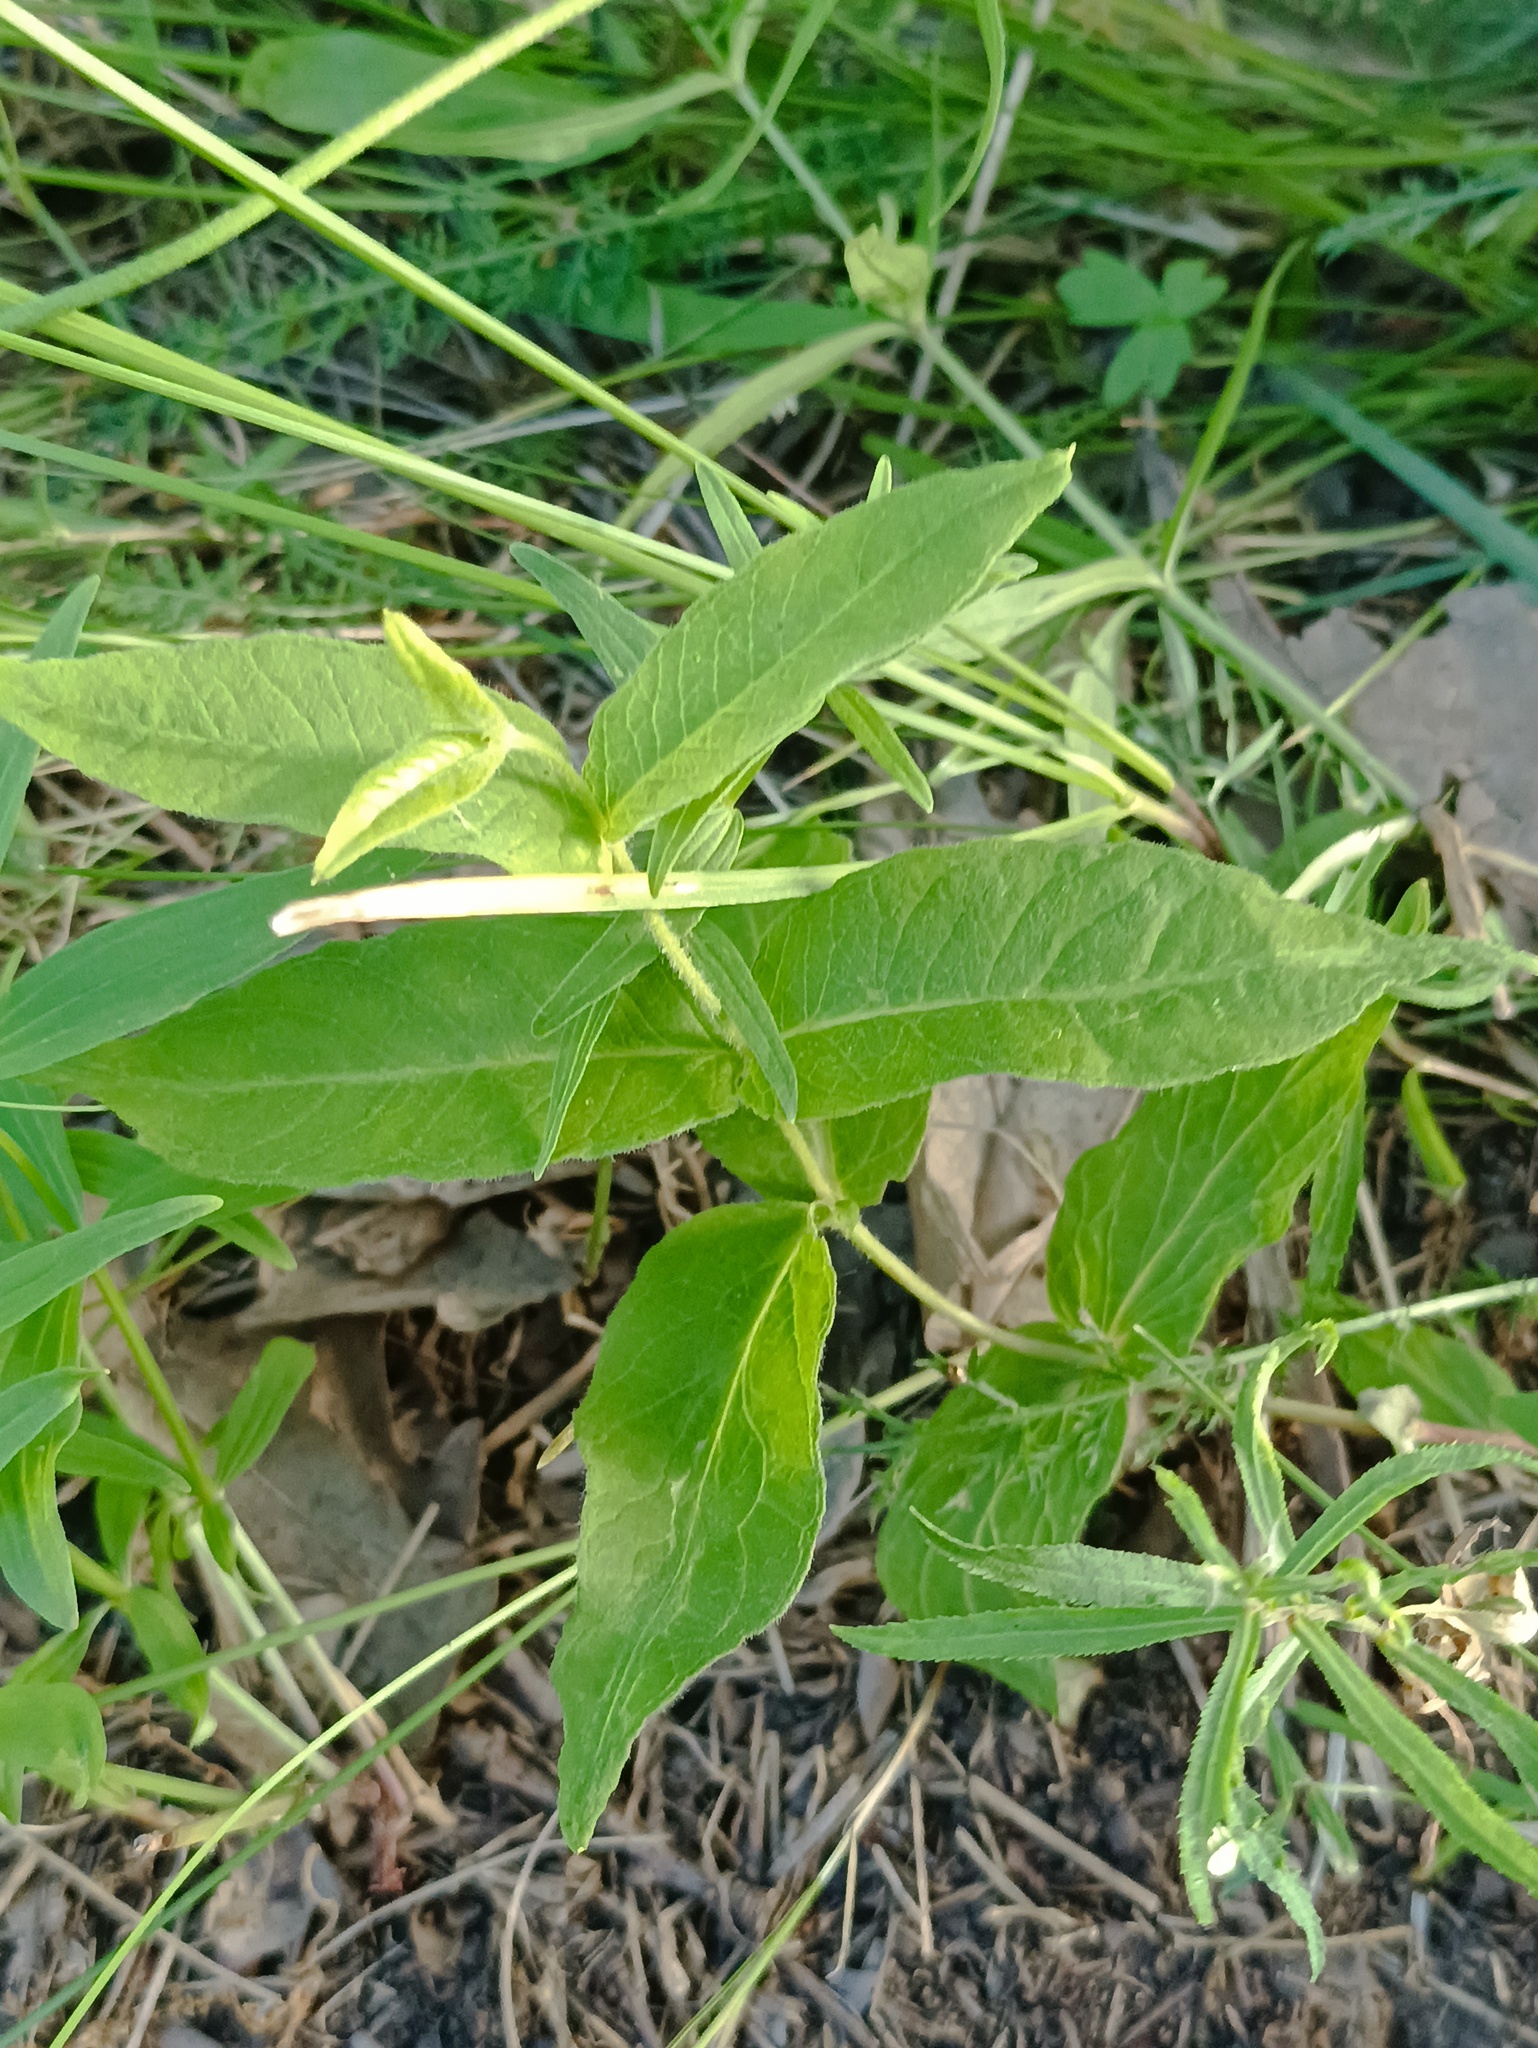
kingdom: Plantae
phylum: Tracheophyta
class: Magnoliopsida
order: Ericales
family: Primulaceae
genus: Lysimachia
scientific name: Lysimachia vulgaris
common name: Yellow loosestrife
